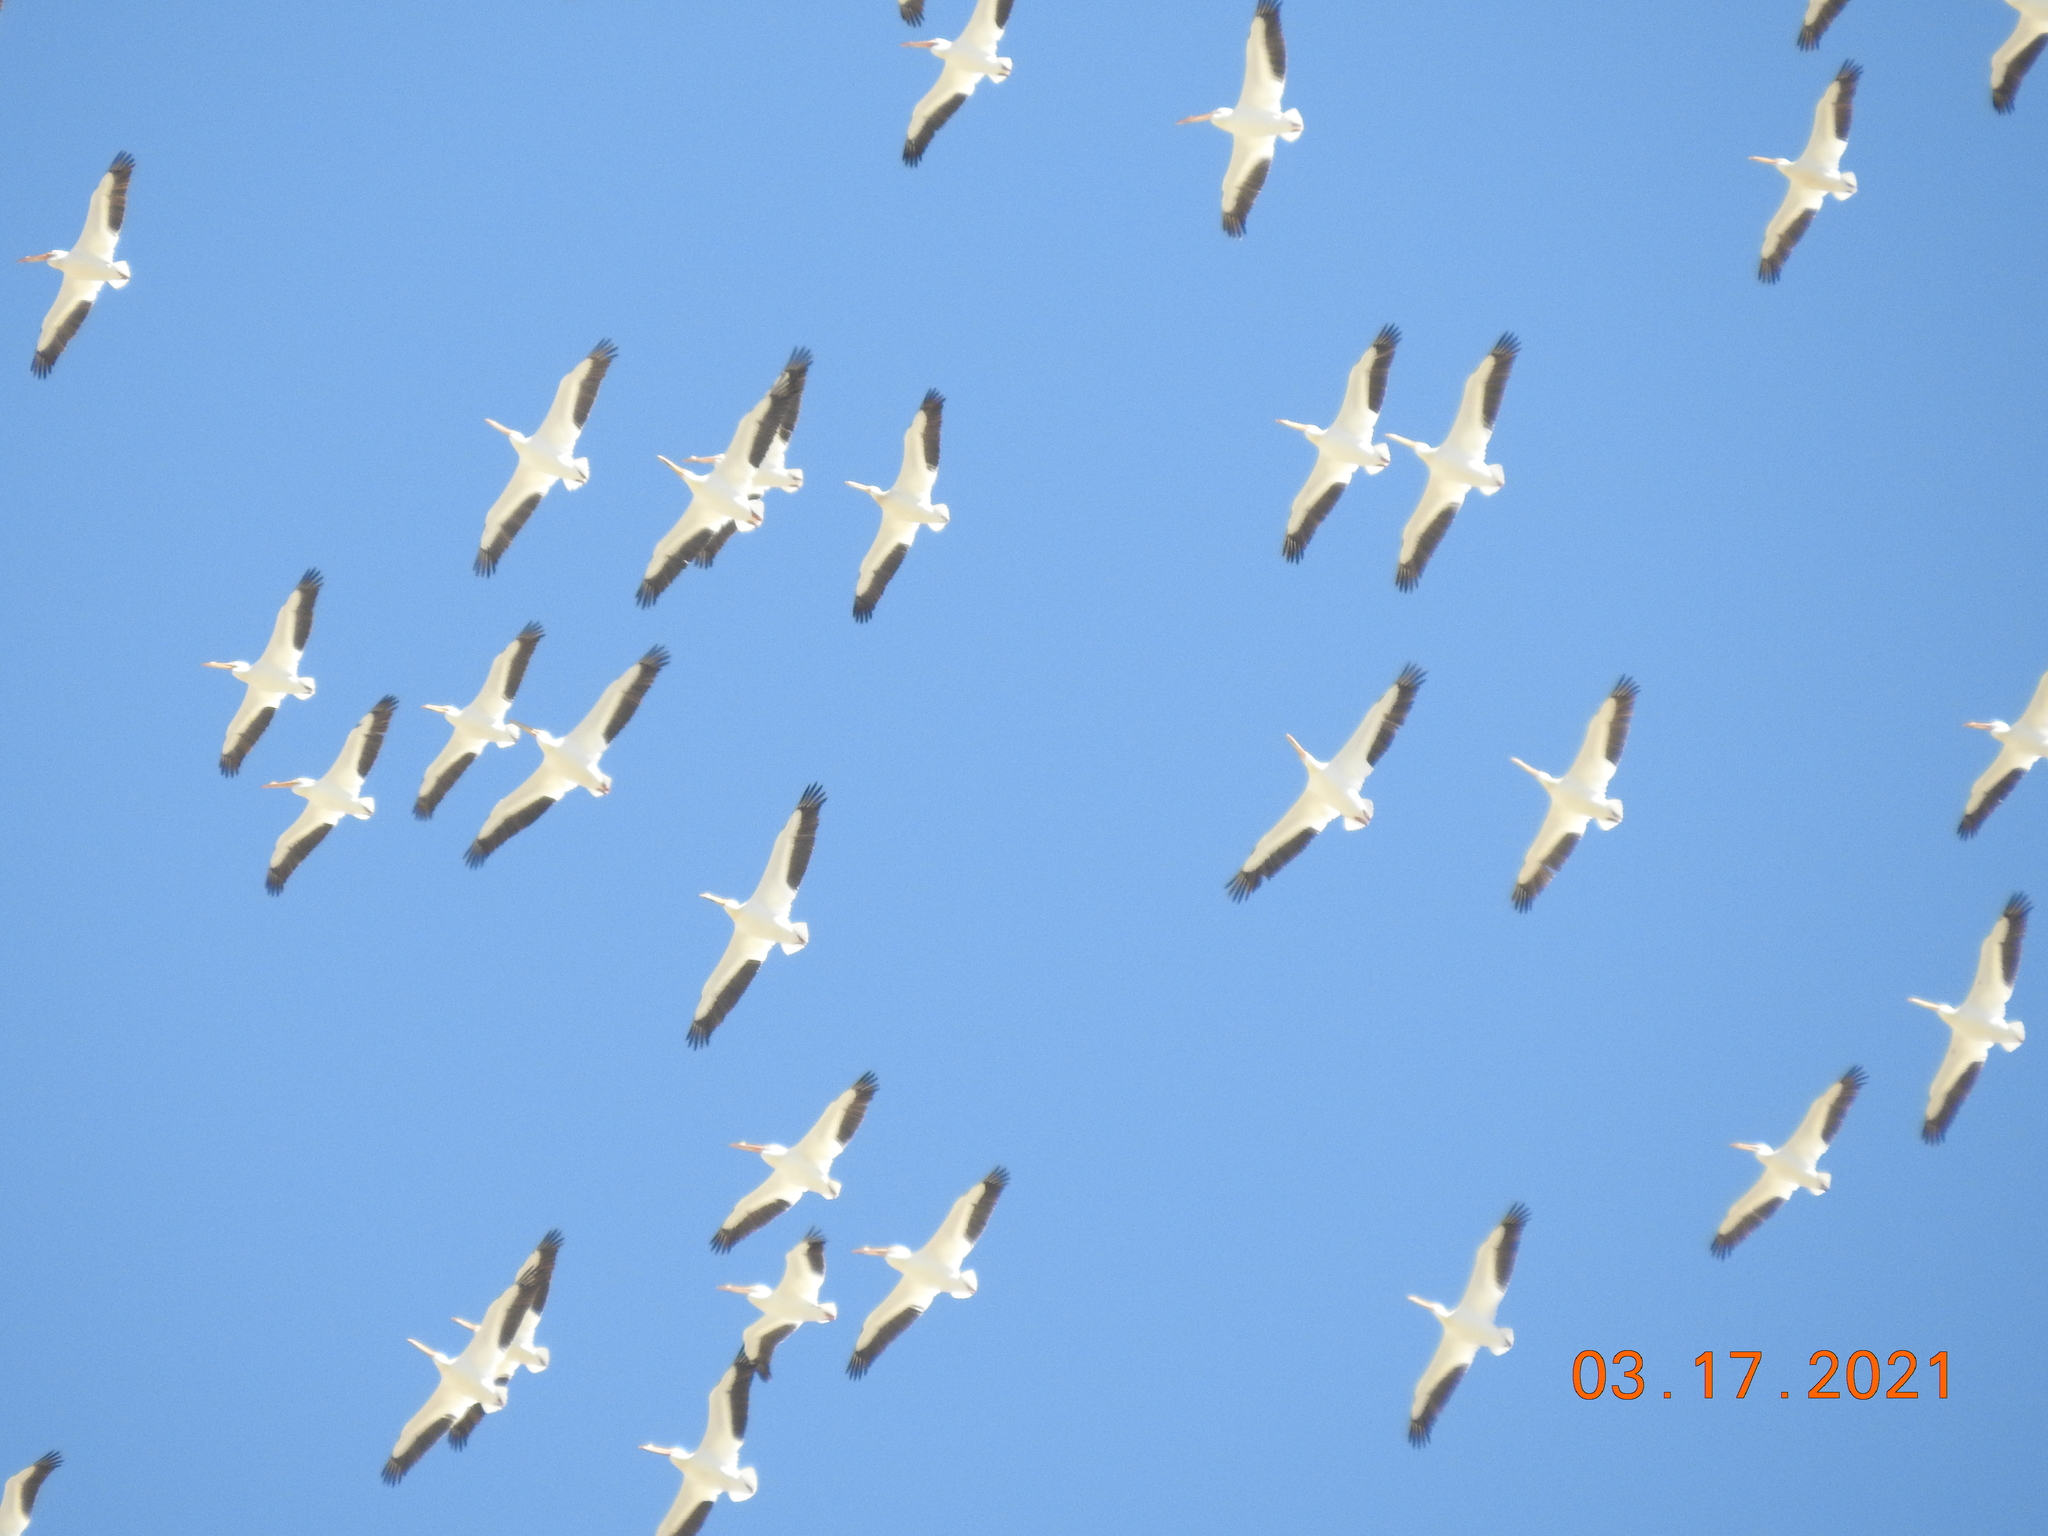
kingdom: Animalia
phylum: Chordata
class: Aves
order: Pelecaniformes
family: Pelecanidae
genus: Pelecanus
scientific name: Pelecanus erythrorhynchos
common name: American white pelican
